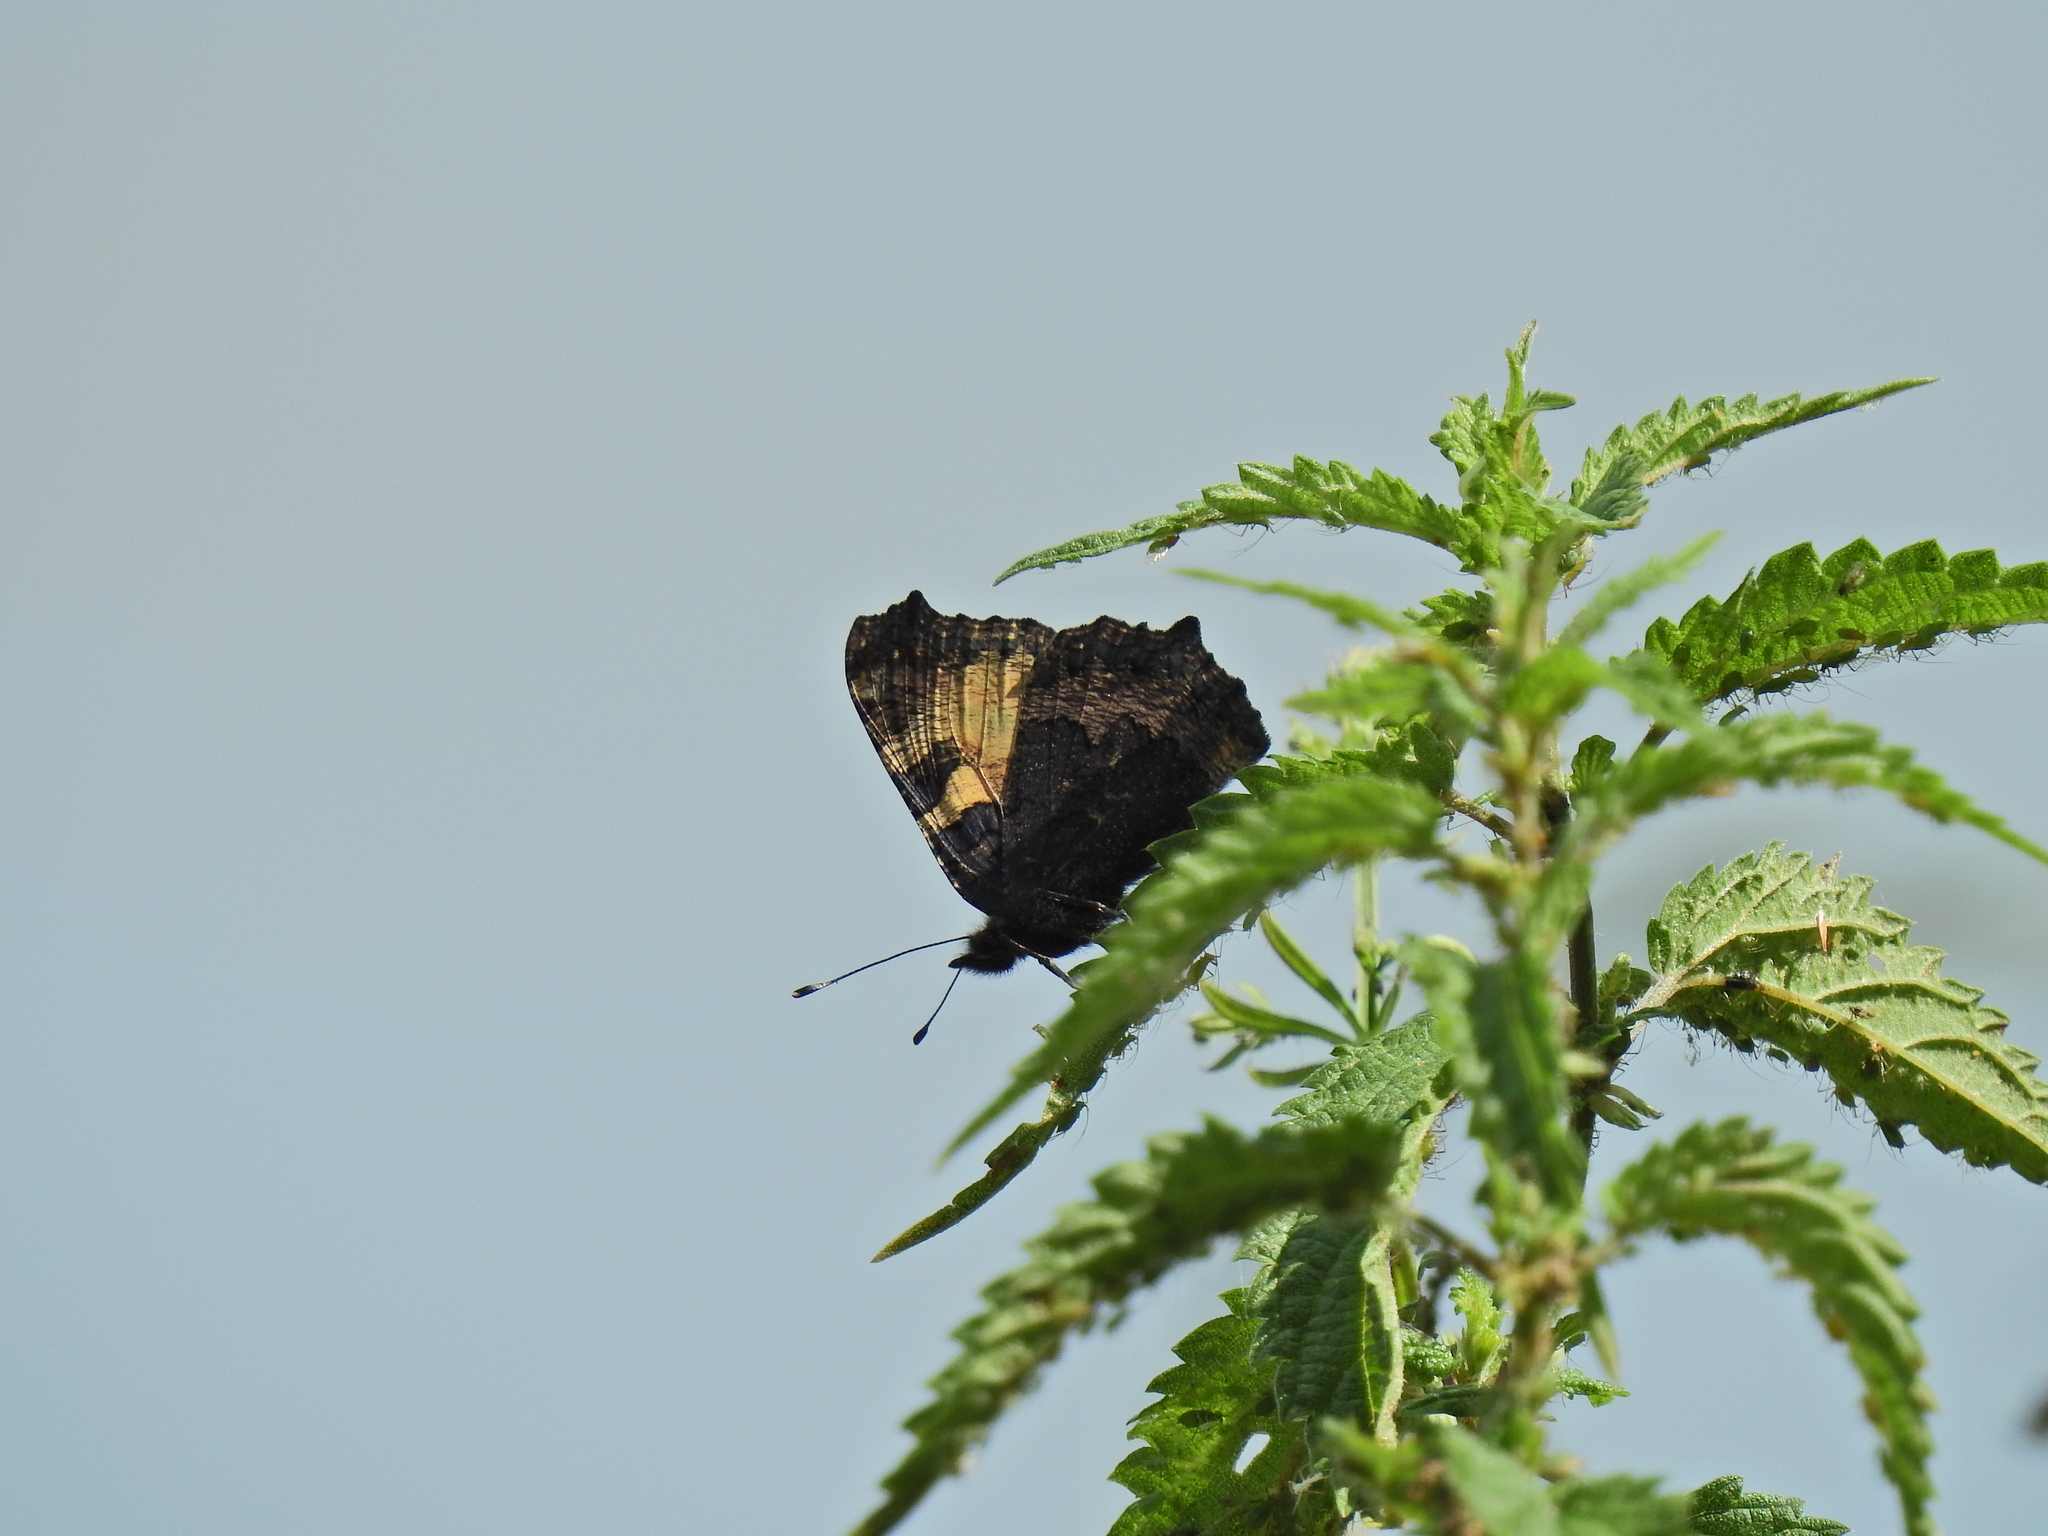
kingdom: Animalia
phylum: Arthropoda
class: Insecta
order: Lepidoptera
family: Nymphalidae
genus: Aglais
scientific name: Aglais urticae
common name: Small tortoiseshell
